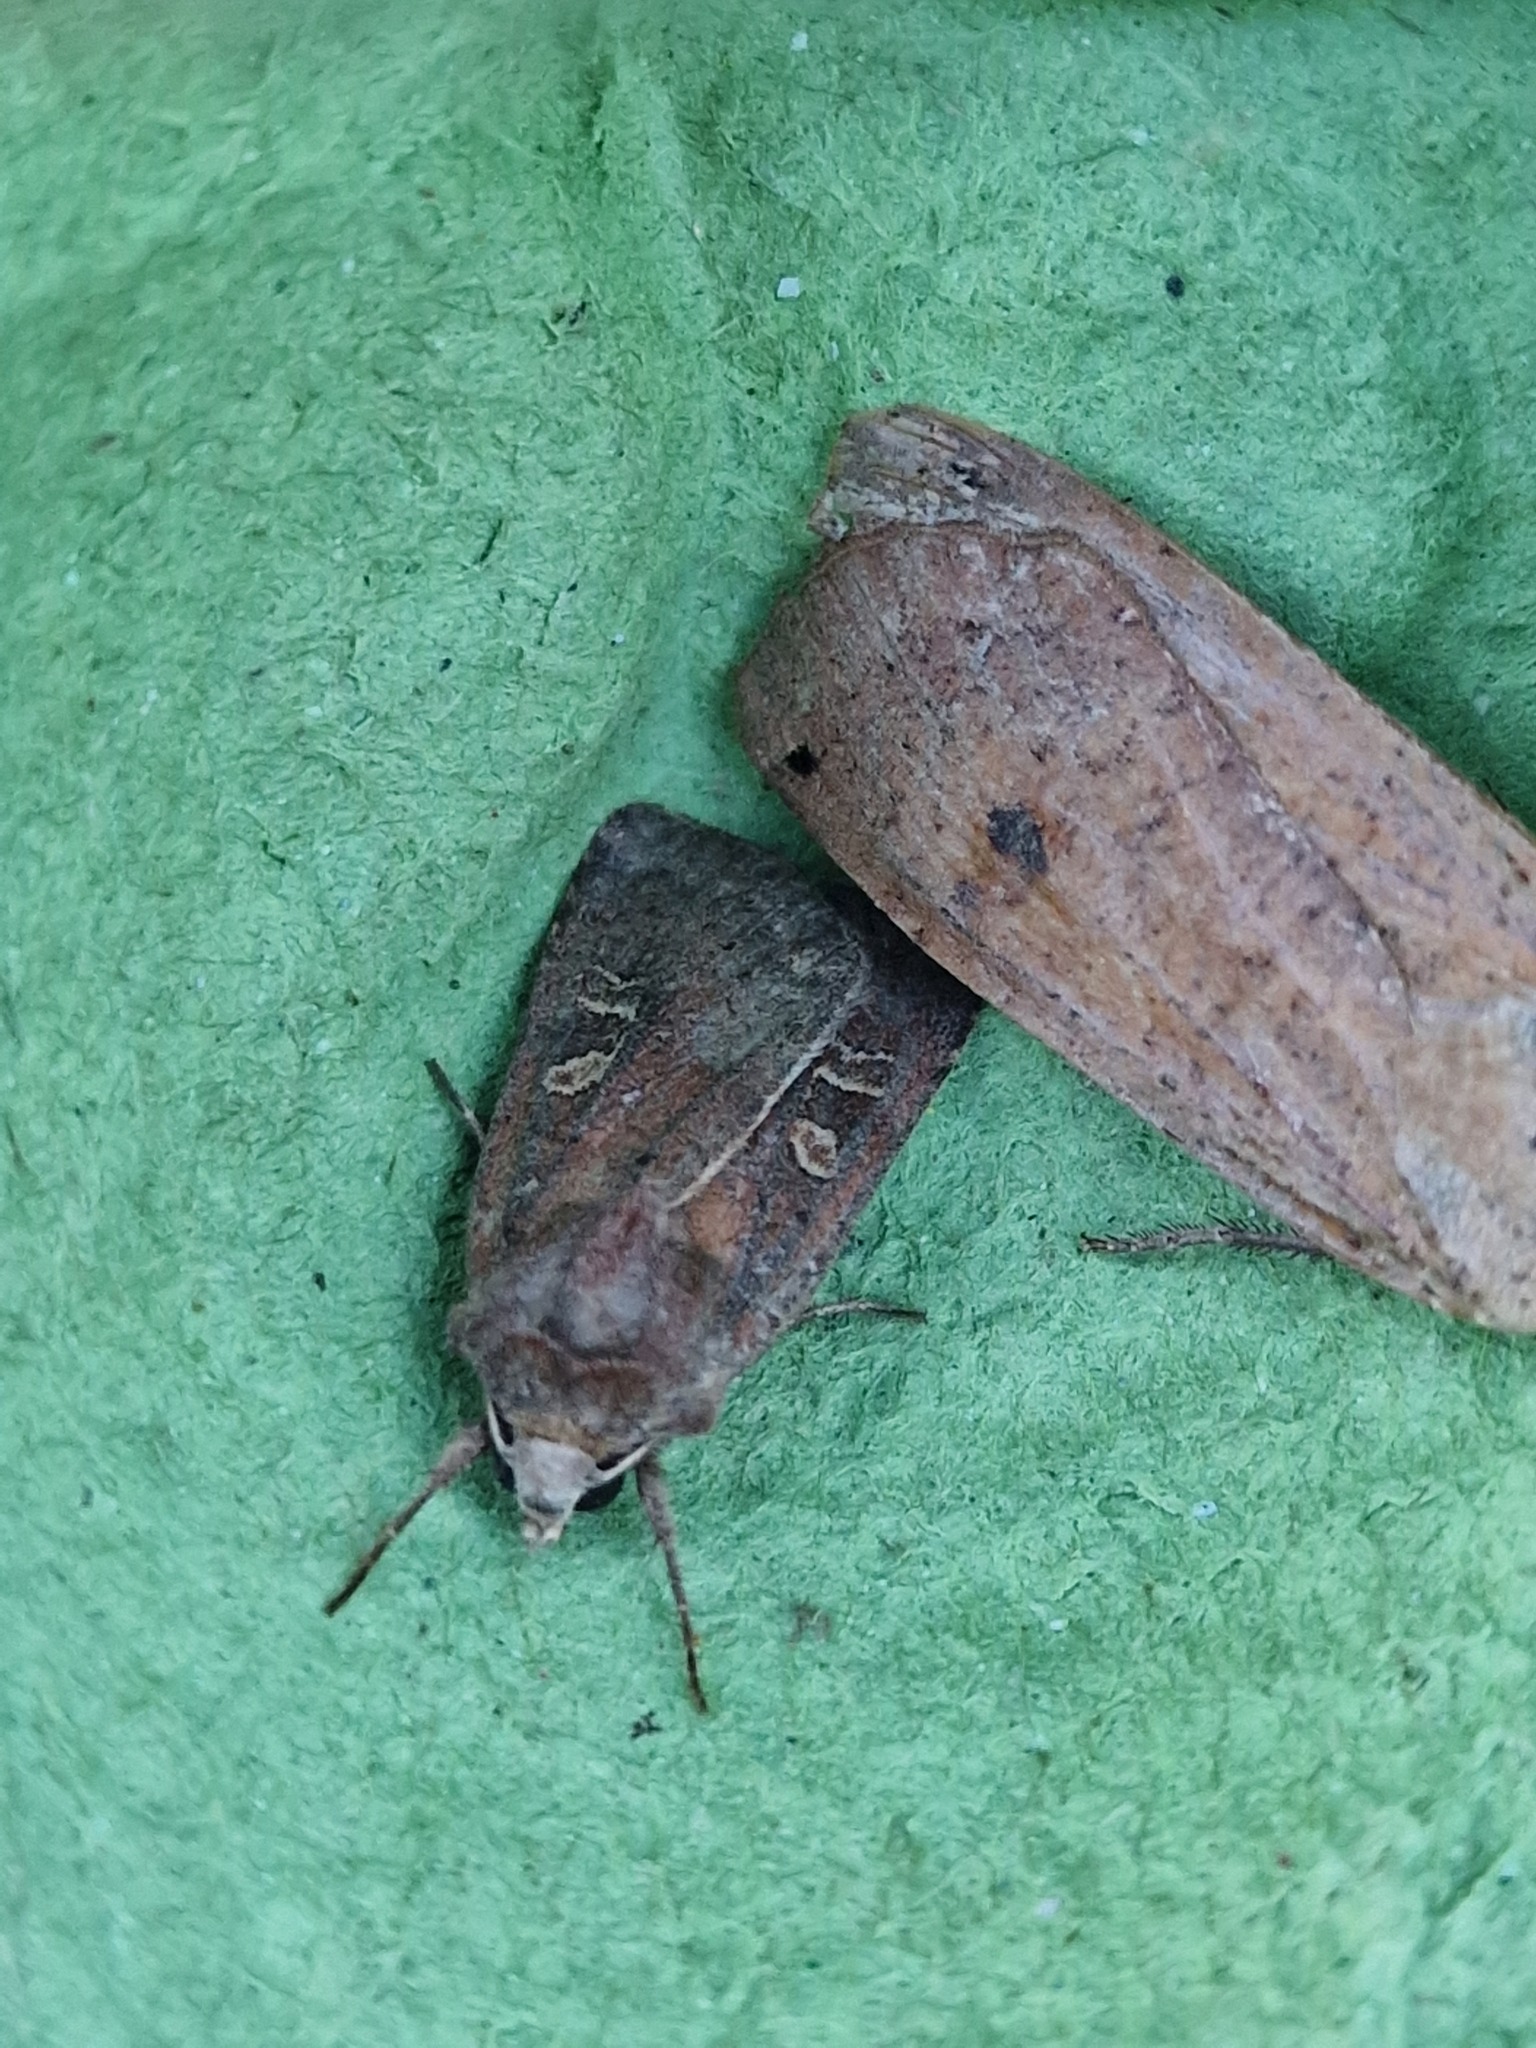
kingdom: Animalia
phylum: Arthropoda
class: Insecta
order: Lepidoptera
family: Noctuidae
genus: Xestia
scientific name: Xestia xanthographa
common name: Square-spot rustic
